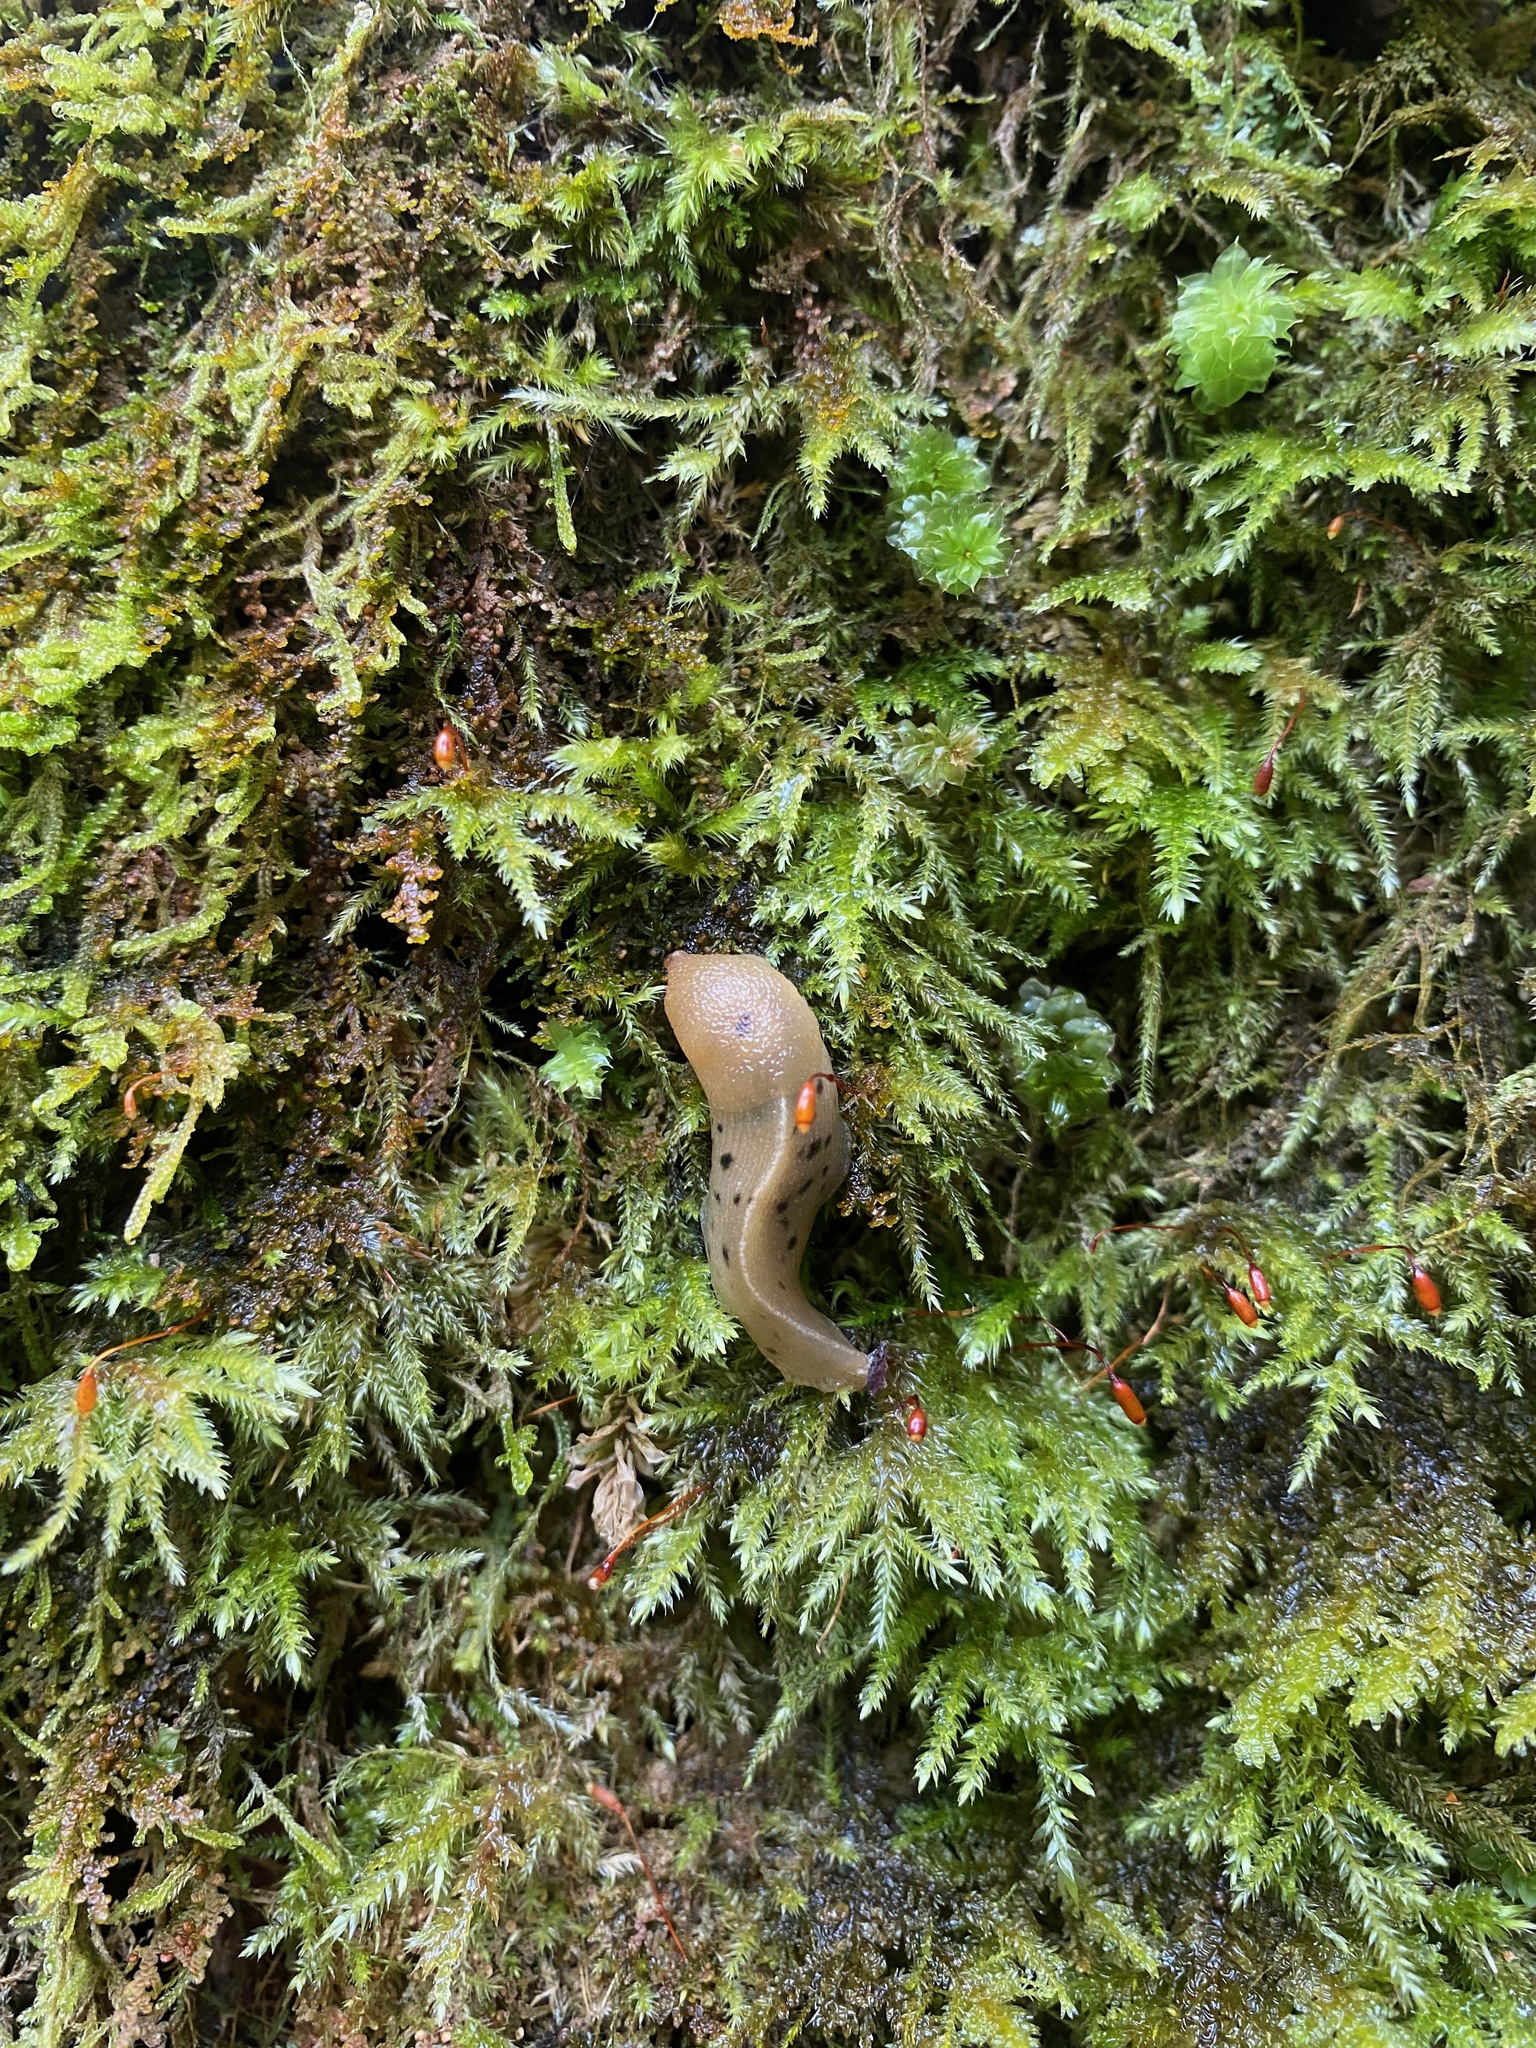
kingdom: Animalia
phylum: Mollusca
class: Gastropoda
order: Stylommatophora
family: Ariolimacidae
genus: Ariolimax
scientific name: Ariolimax columbianus
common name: Pacific banana slug
